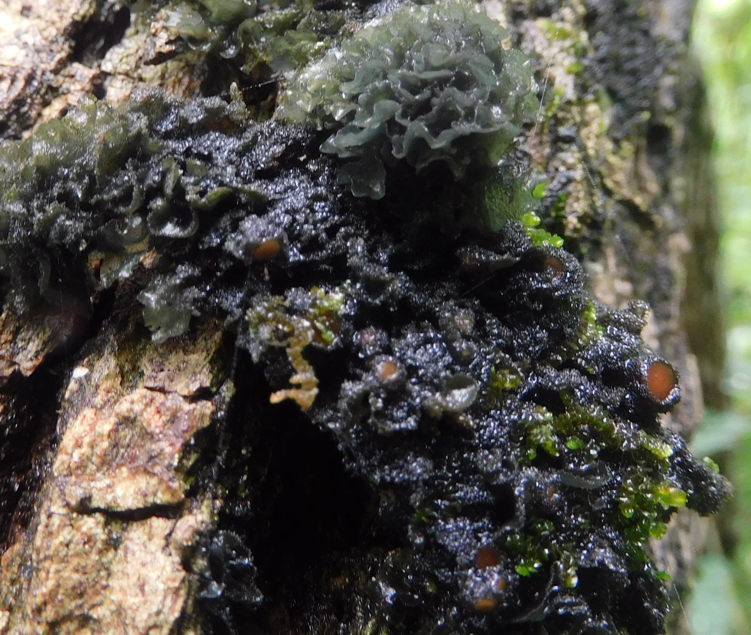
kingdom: Fungi
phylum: Ascomycota
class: Lecanoromycetes
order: Peltigerales
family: Collemataceae
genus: Leptogium
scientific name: Leptogium phyllocarpum
